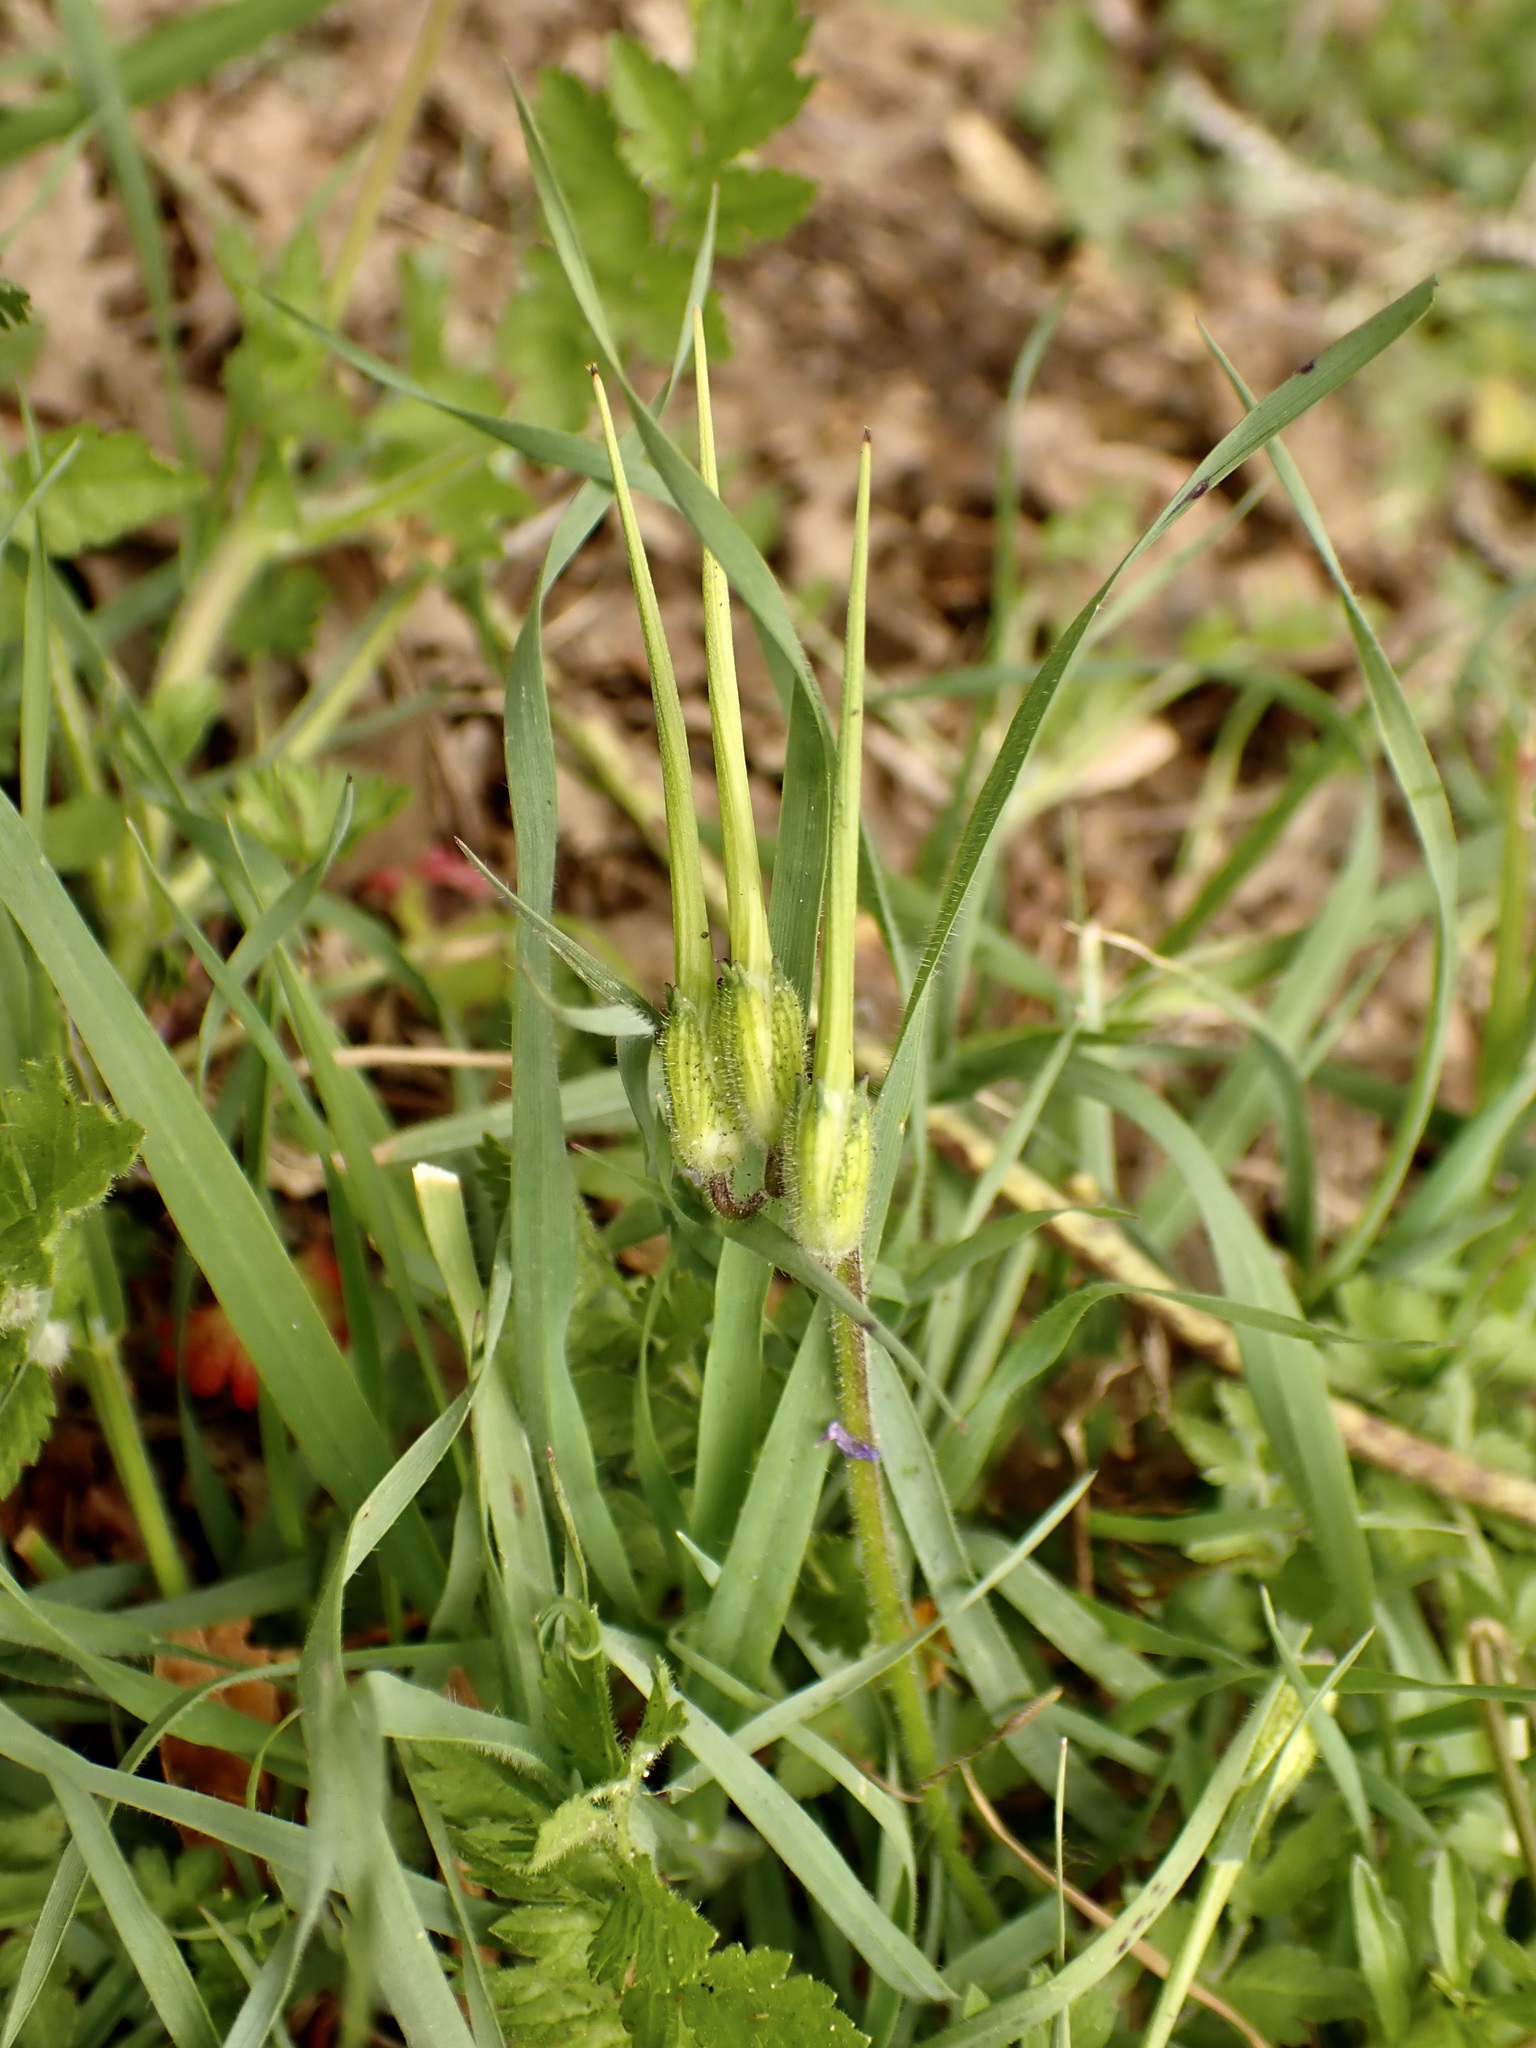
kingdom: Plantae
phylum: Tracheophyta
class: Magnoliopsida
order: Geraniales
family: Geraniaceae
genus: Erodium
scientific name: Erodium moschatum
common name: Musk stork's-bill
